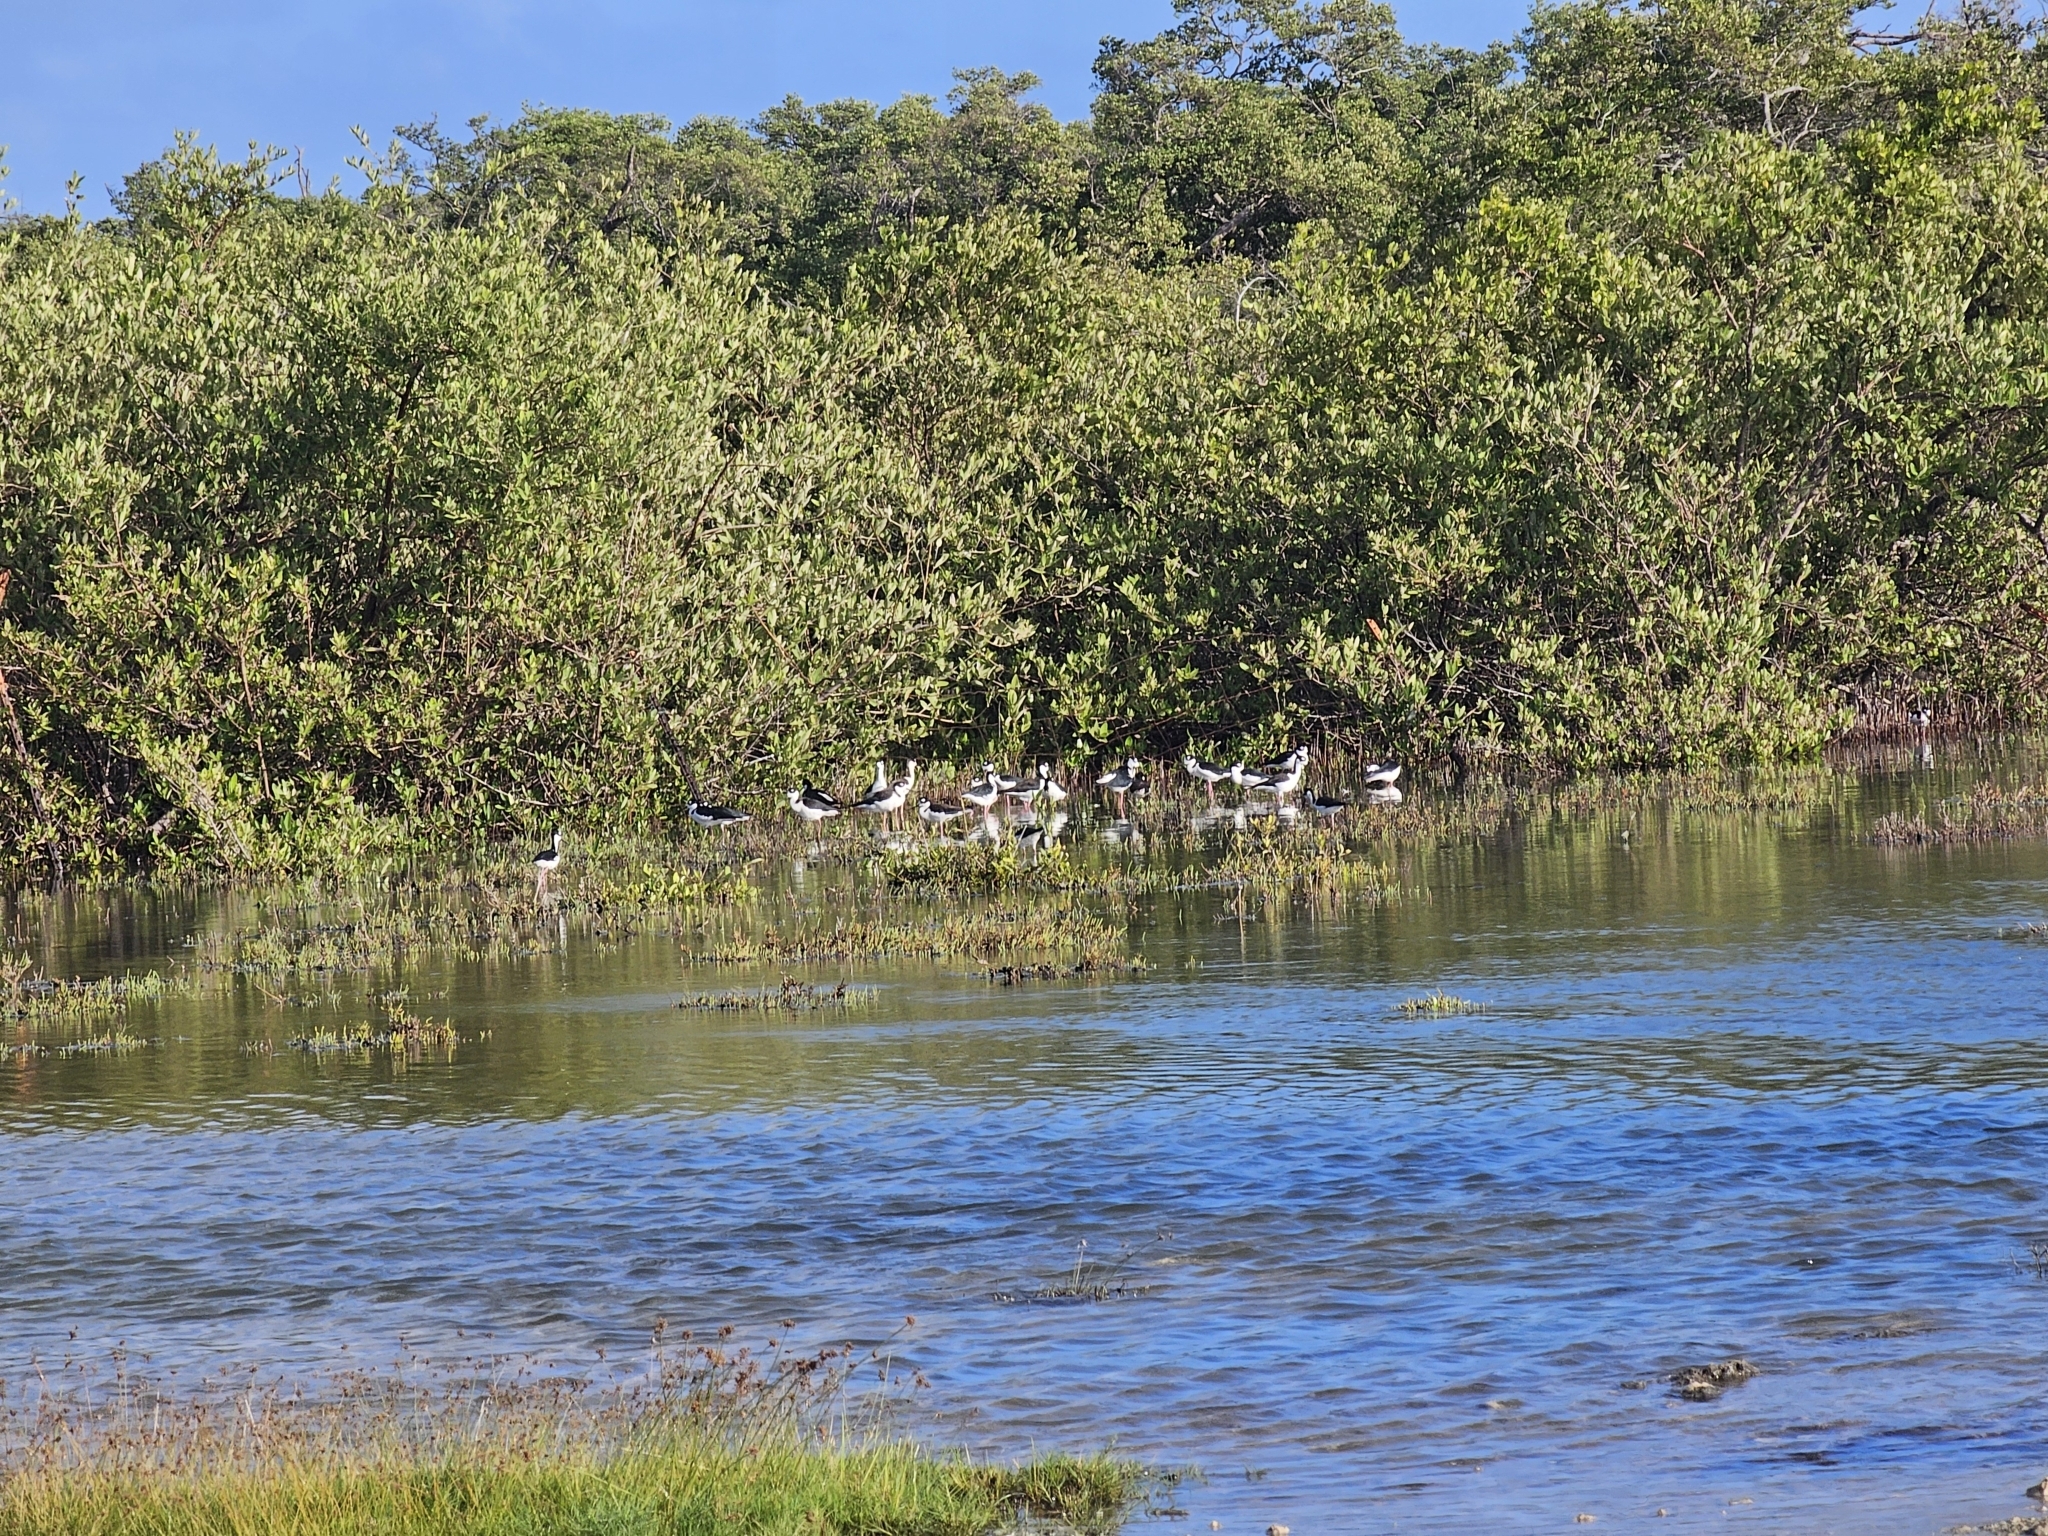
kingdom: Animalia
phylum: Chordata
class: Aves
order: Charadriiformes
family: Recurvirostridae
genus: Himantopus
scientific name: Himantopus mexicanus
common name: Black-necked stilt
